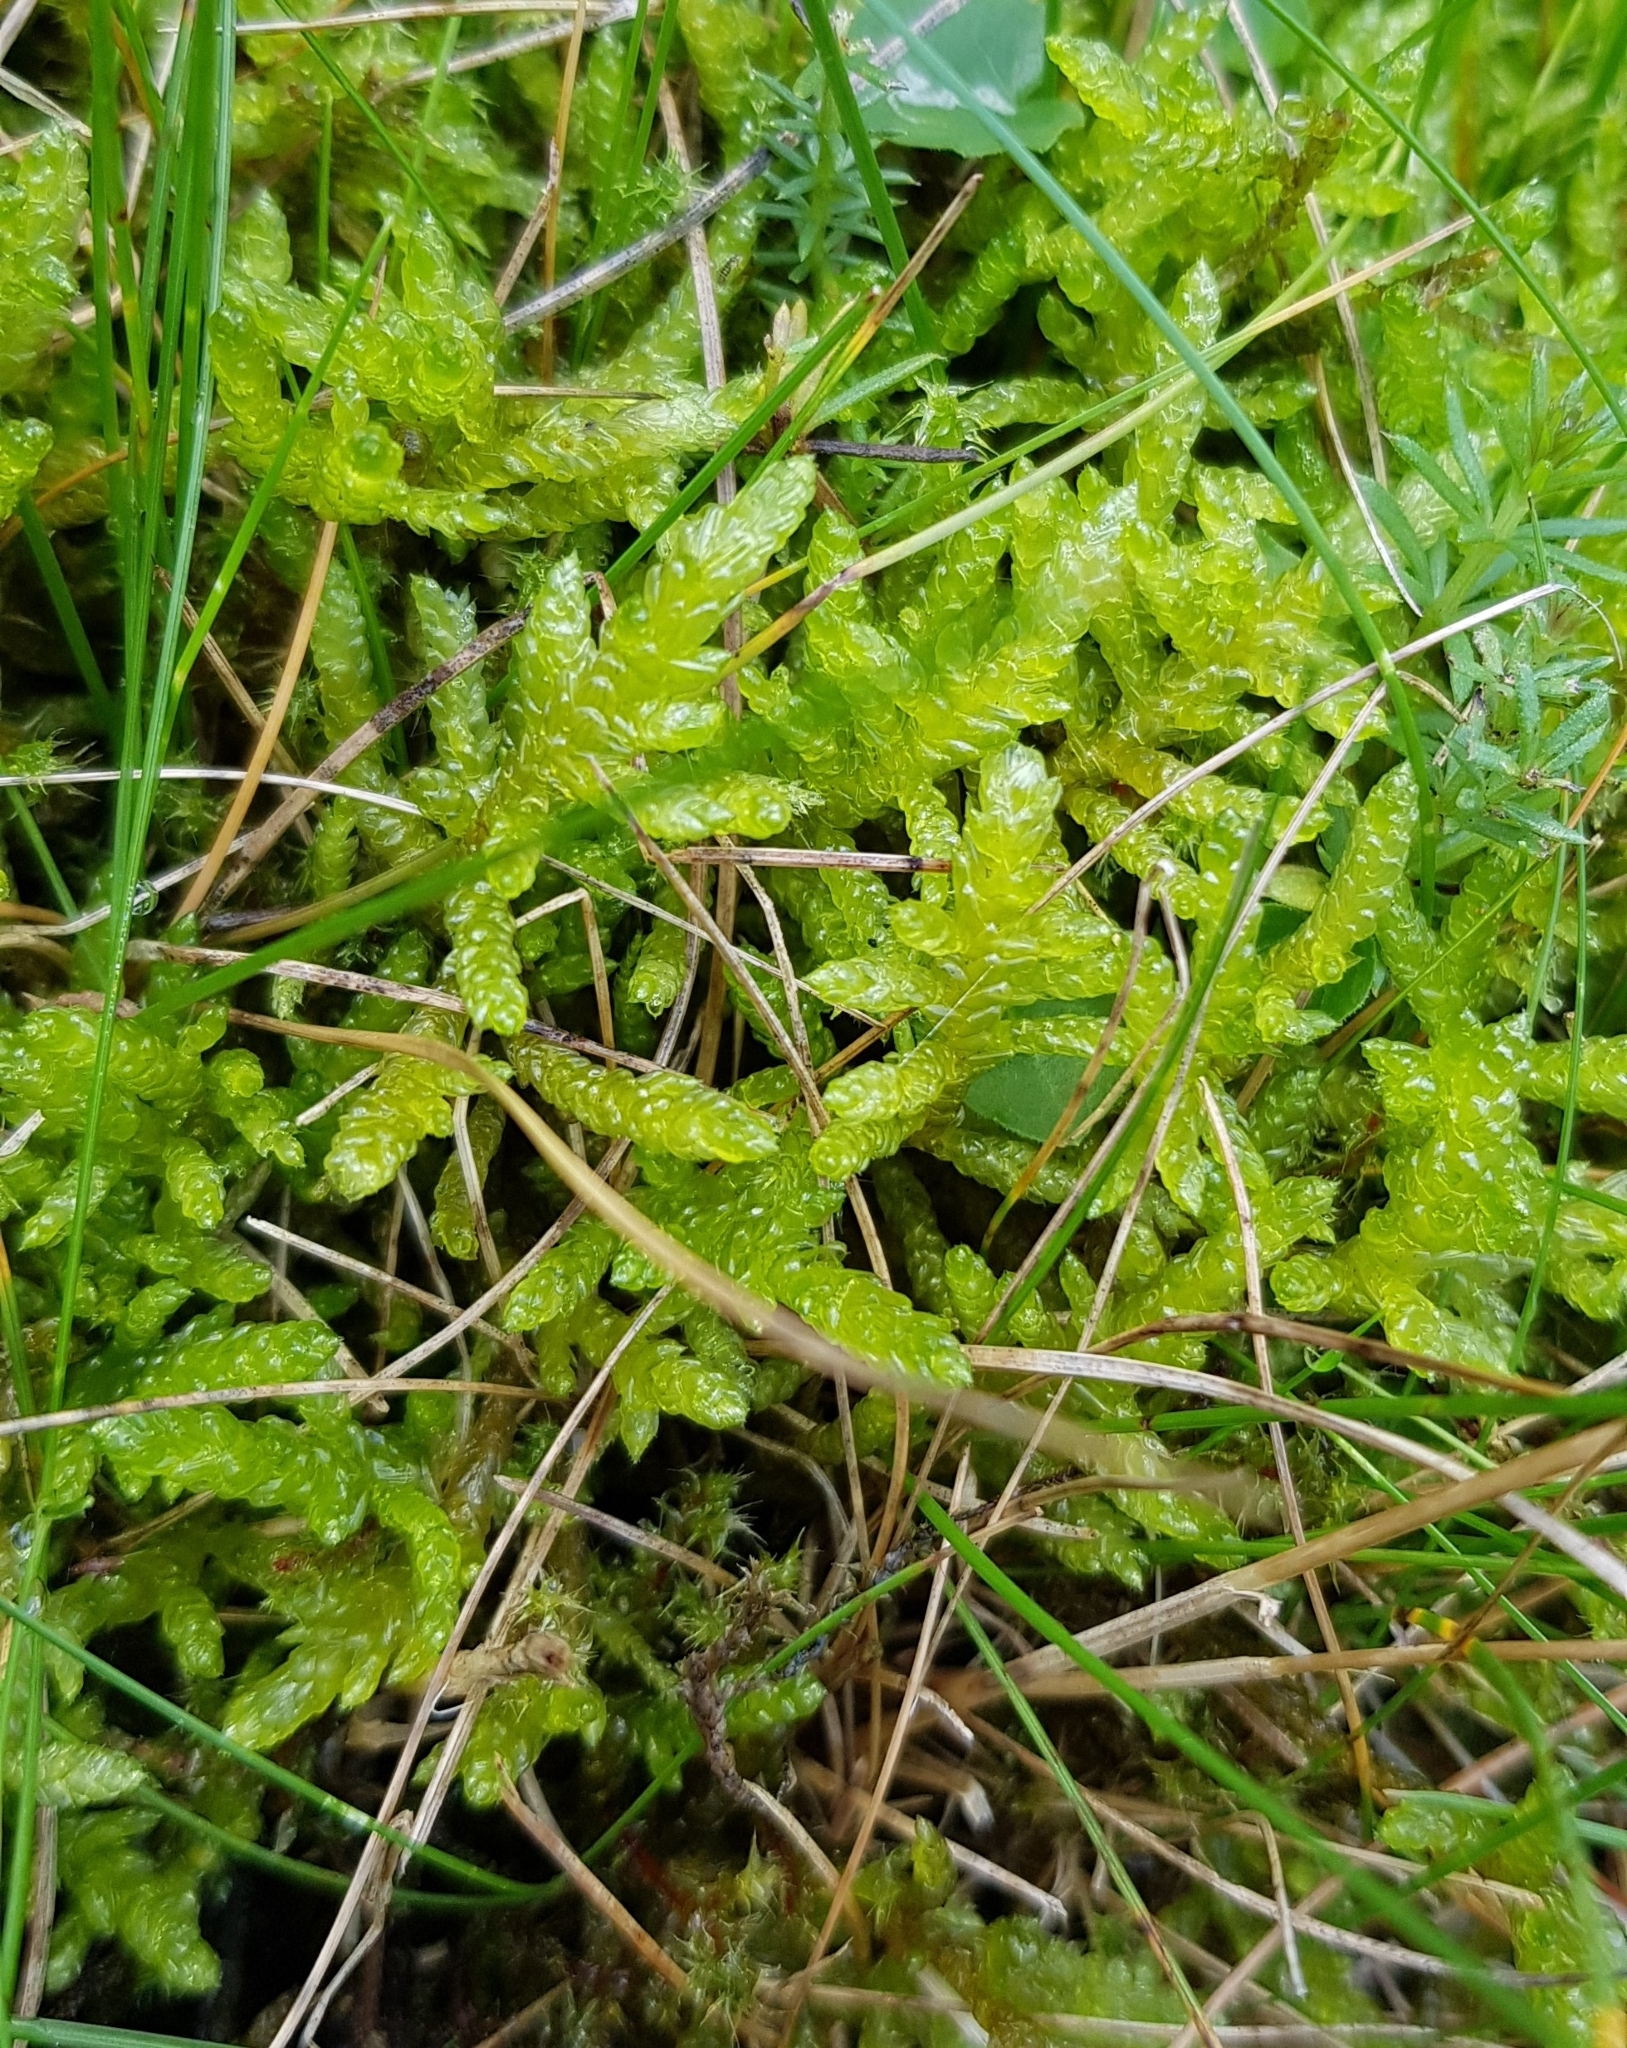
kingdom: Plantae
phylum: Bryophyta
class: Bryopsida
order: Hypnales
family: Brachytheciaceae
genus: Pseudoscleropodium
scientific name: Pseudoscleropodium purum
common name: Neat feather-moss
